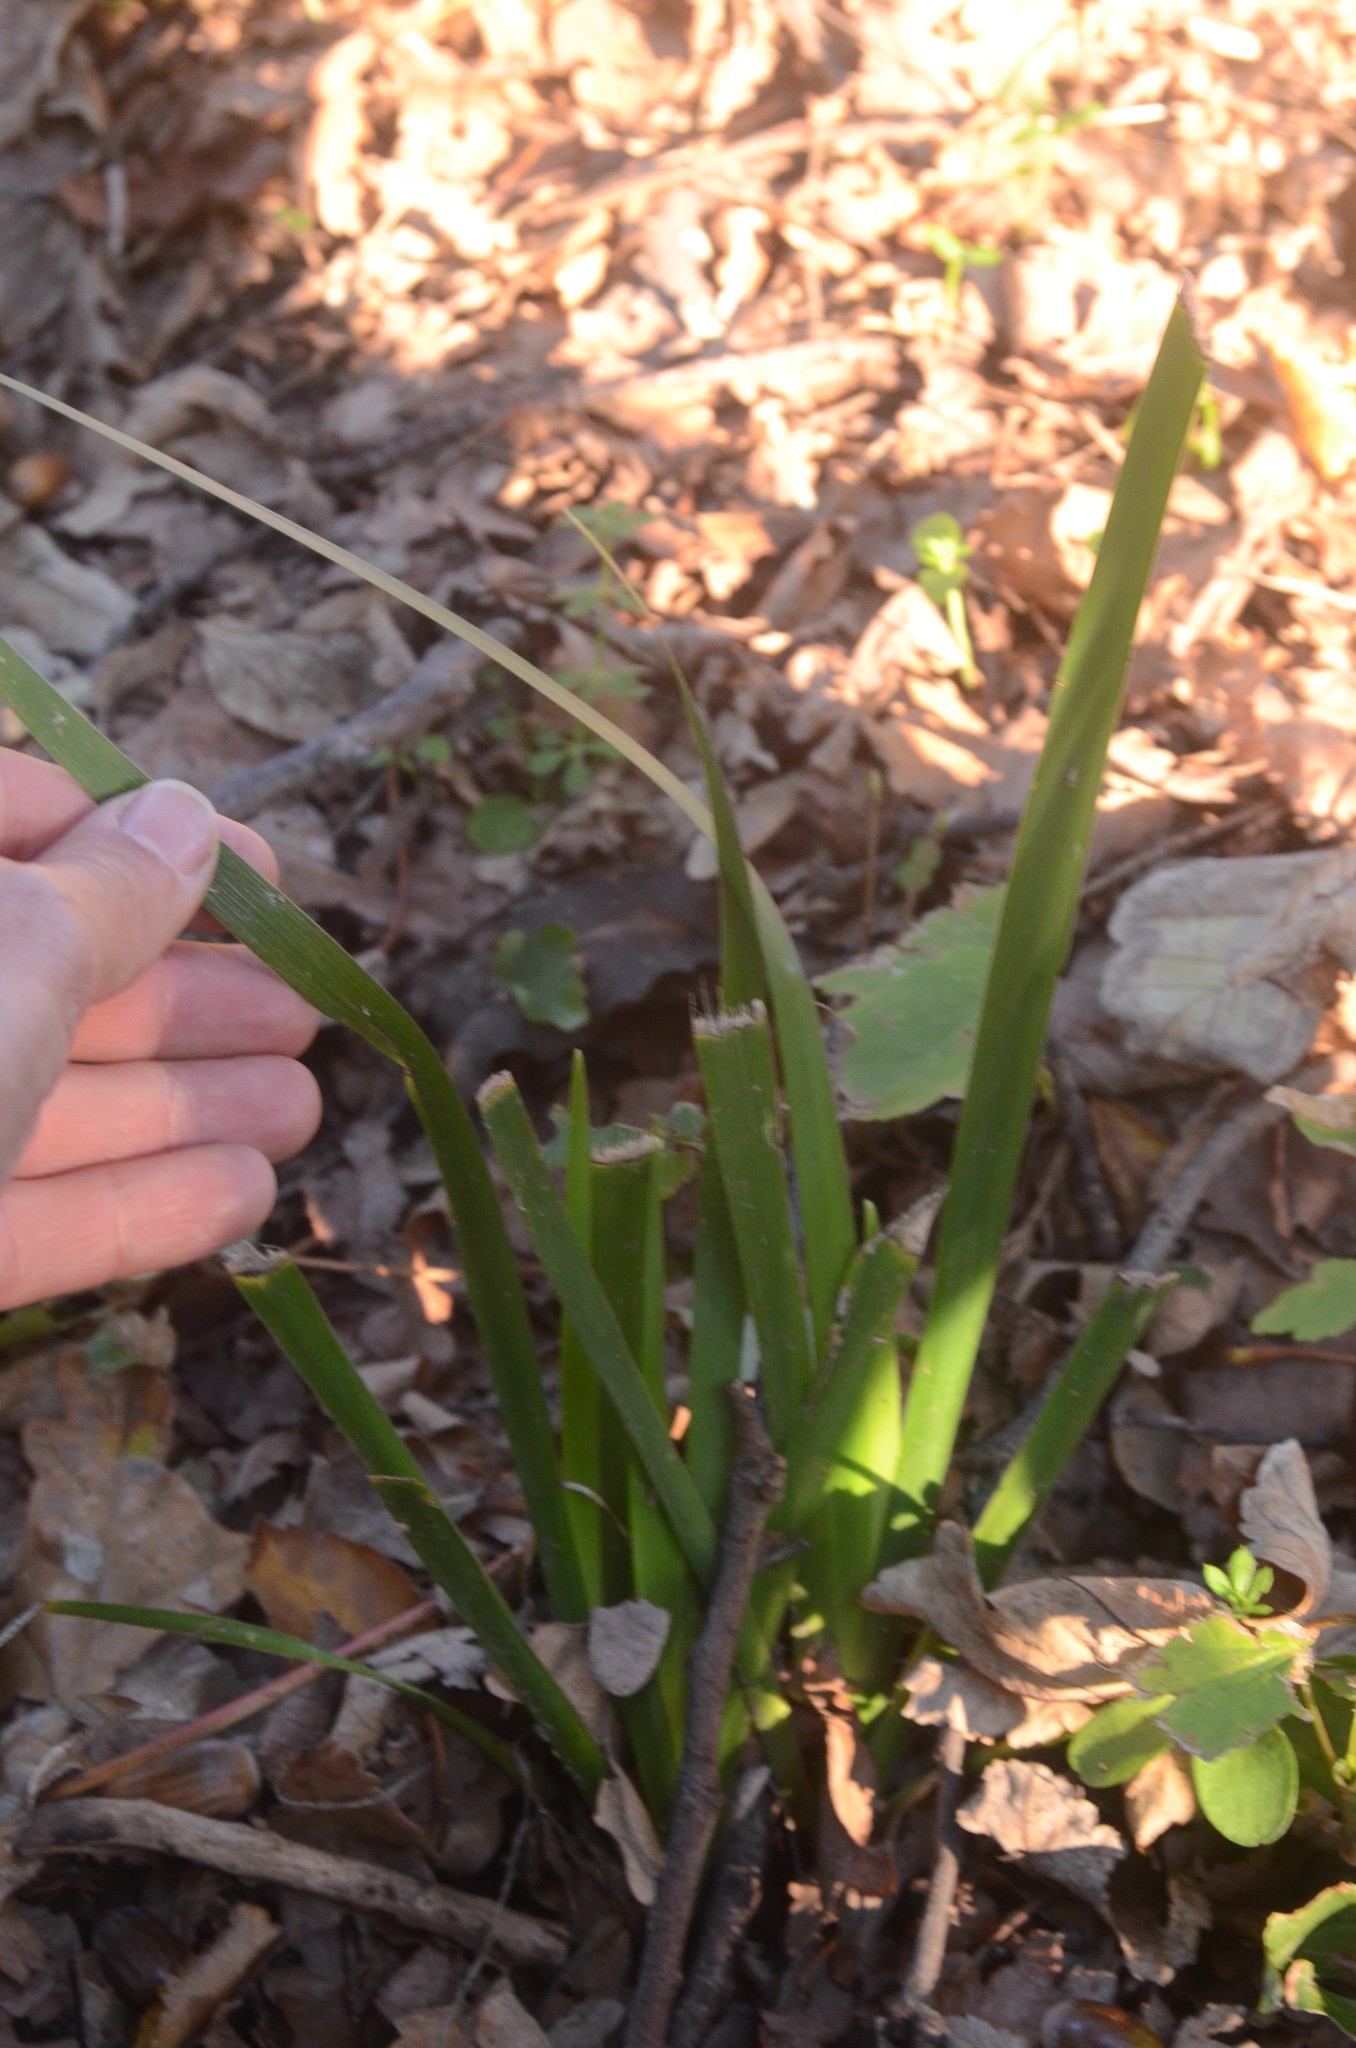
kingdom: Plantae
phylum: Tracheophyta
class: Liliopsida
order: Asparagales
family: Iridaceae
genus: Iris
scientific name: Iris foetidissima
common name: Stinking iris
